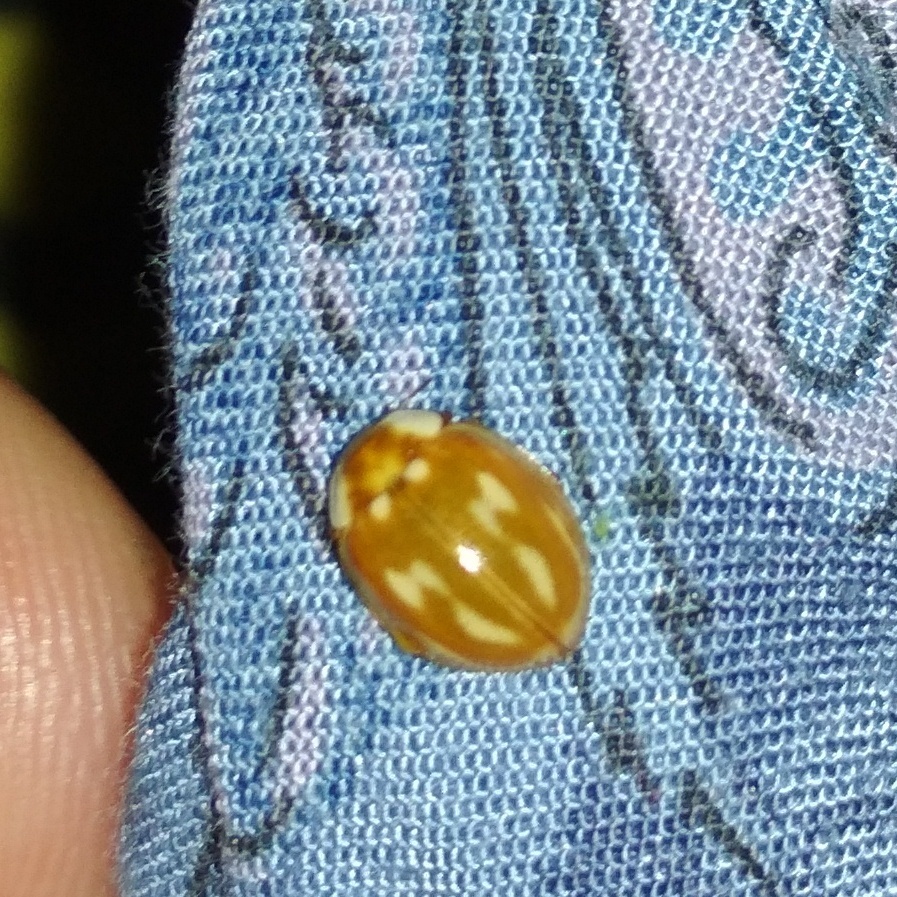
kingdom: Animalia
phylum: Arthropoda
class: Insecta
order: Coleoptera
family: Coccinellidae
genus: Myzia
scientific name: Myzia oblongoguttata
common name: Striped ladybird
